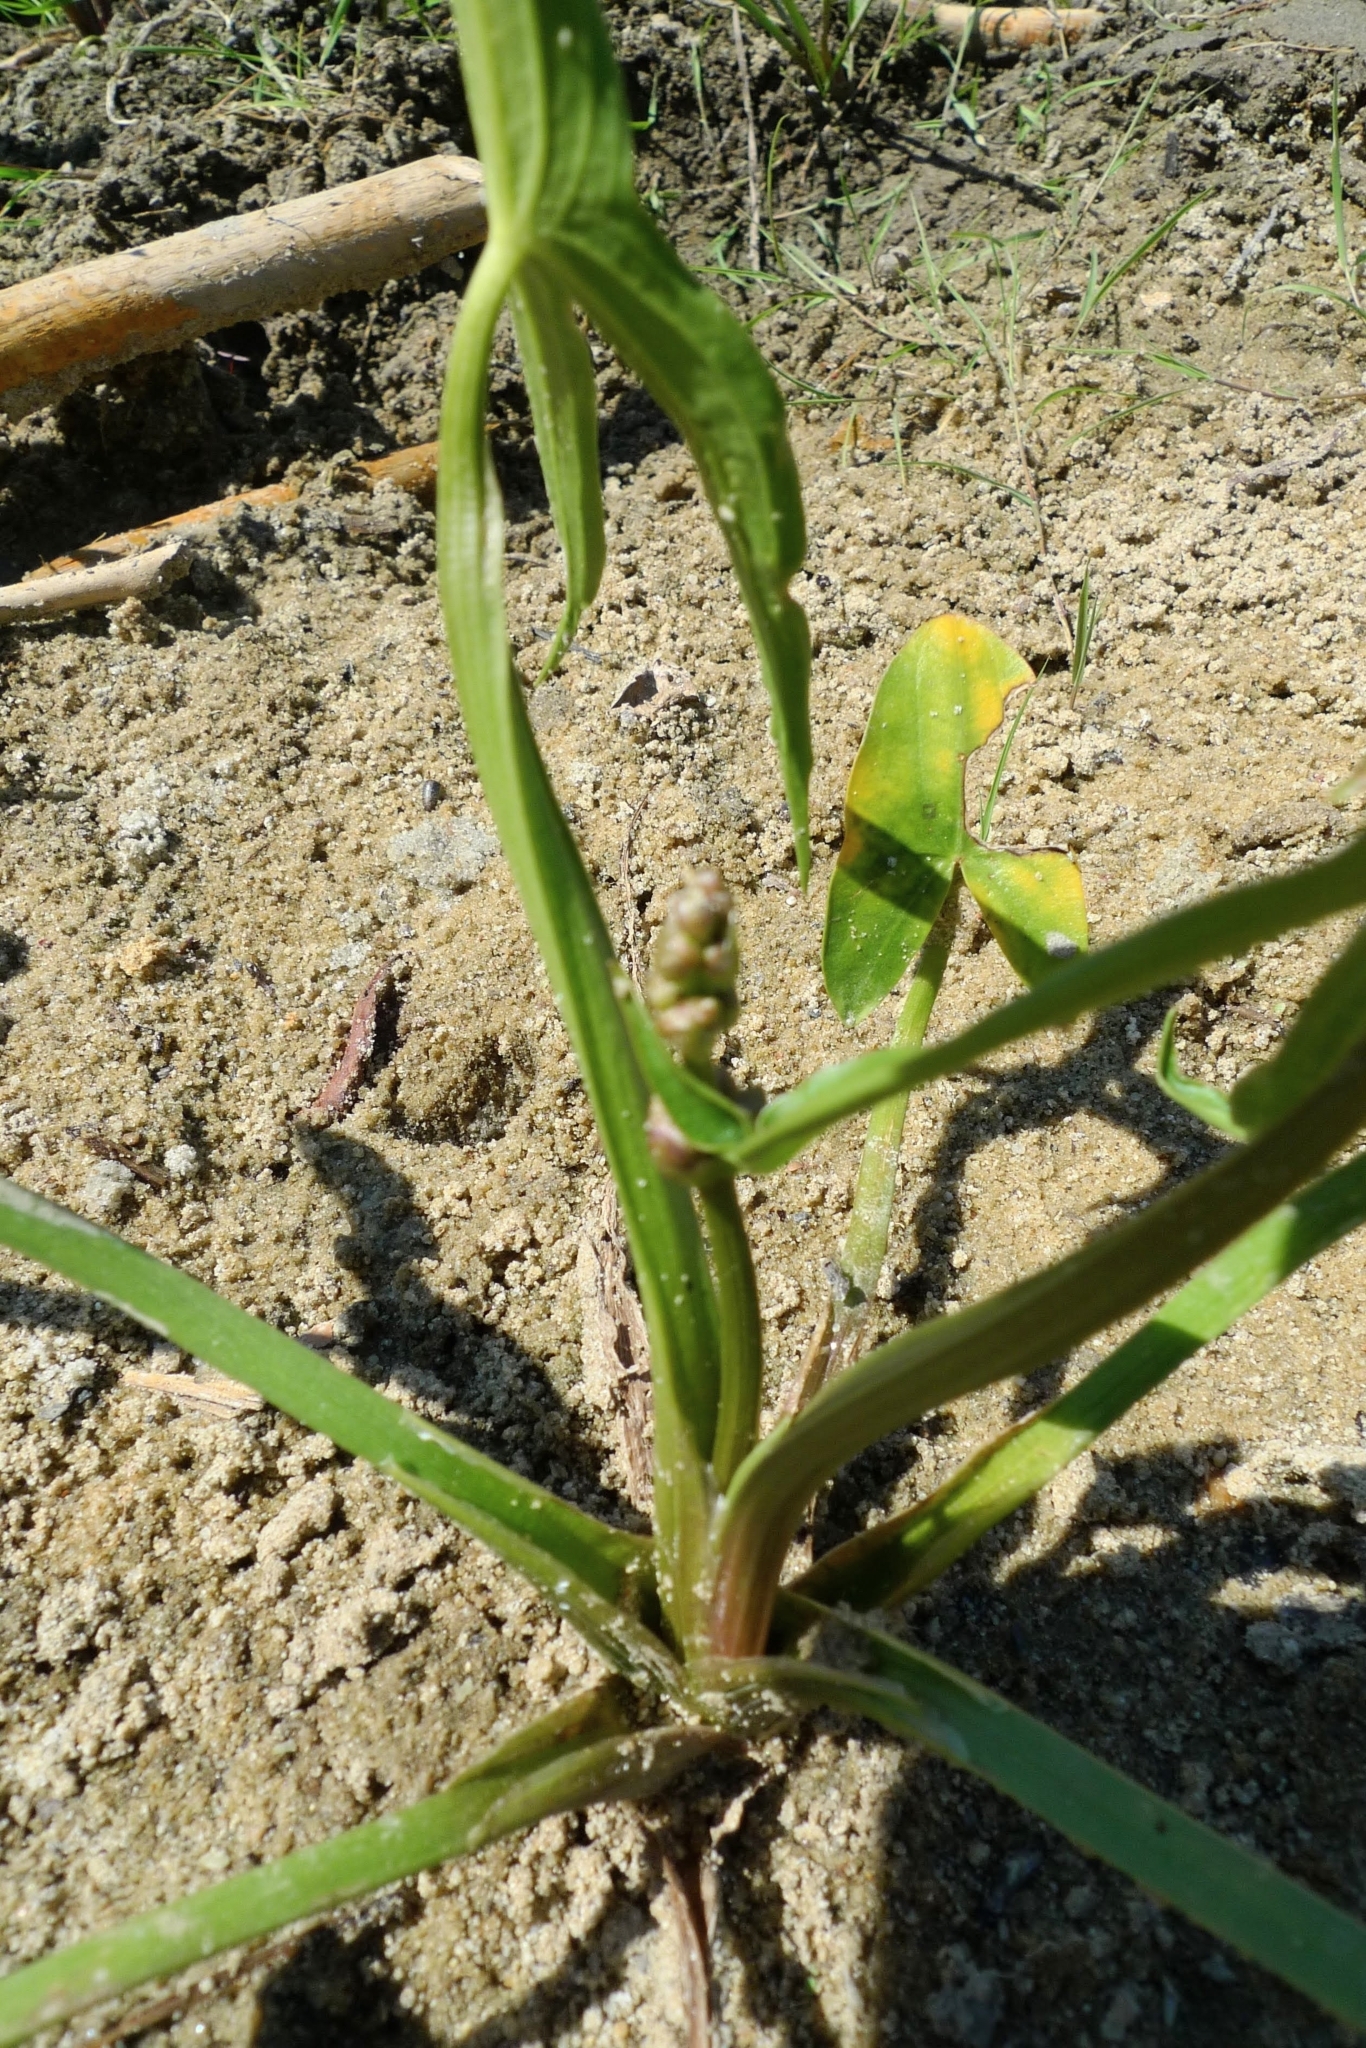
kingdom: Plantae
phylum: Tracheophyta
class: Liliopsida
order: Alismatales
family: Alismataceae
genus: Sagittaria
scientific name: Sagittaria sagittifolia
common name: Arrowhead
